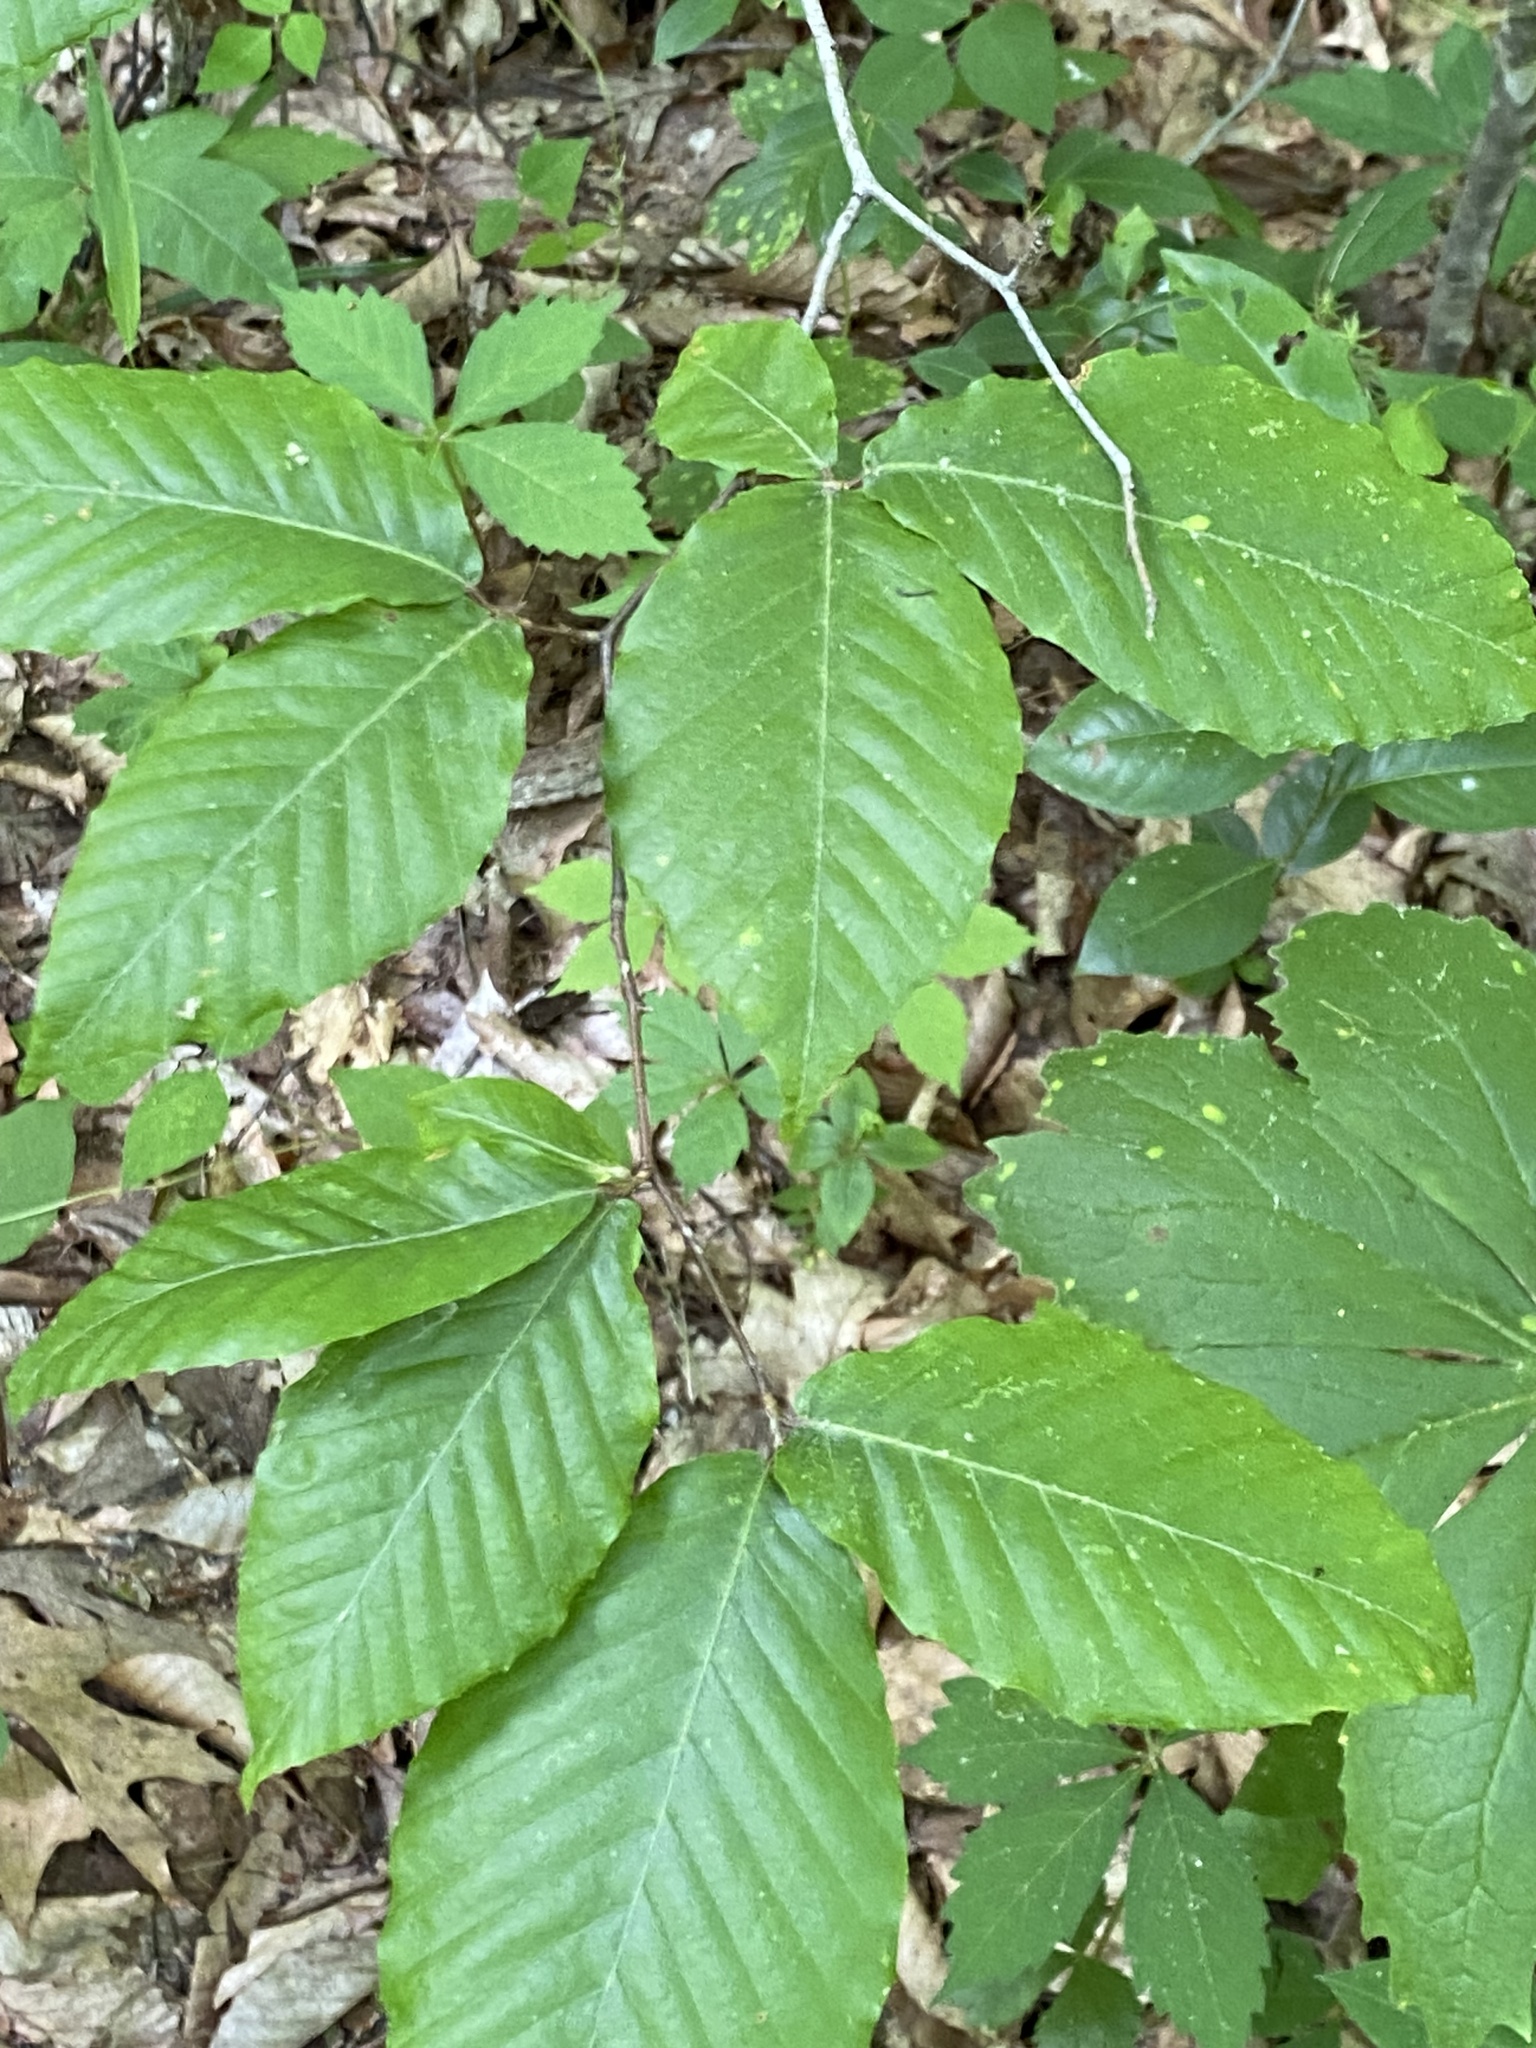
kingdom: Plantae
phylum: Tracheophyta
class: Magnoliopsida
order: Fagales
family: Fagaceae
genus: Fagus
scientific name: Fagus grandifolia
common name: American beech
